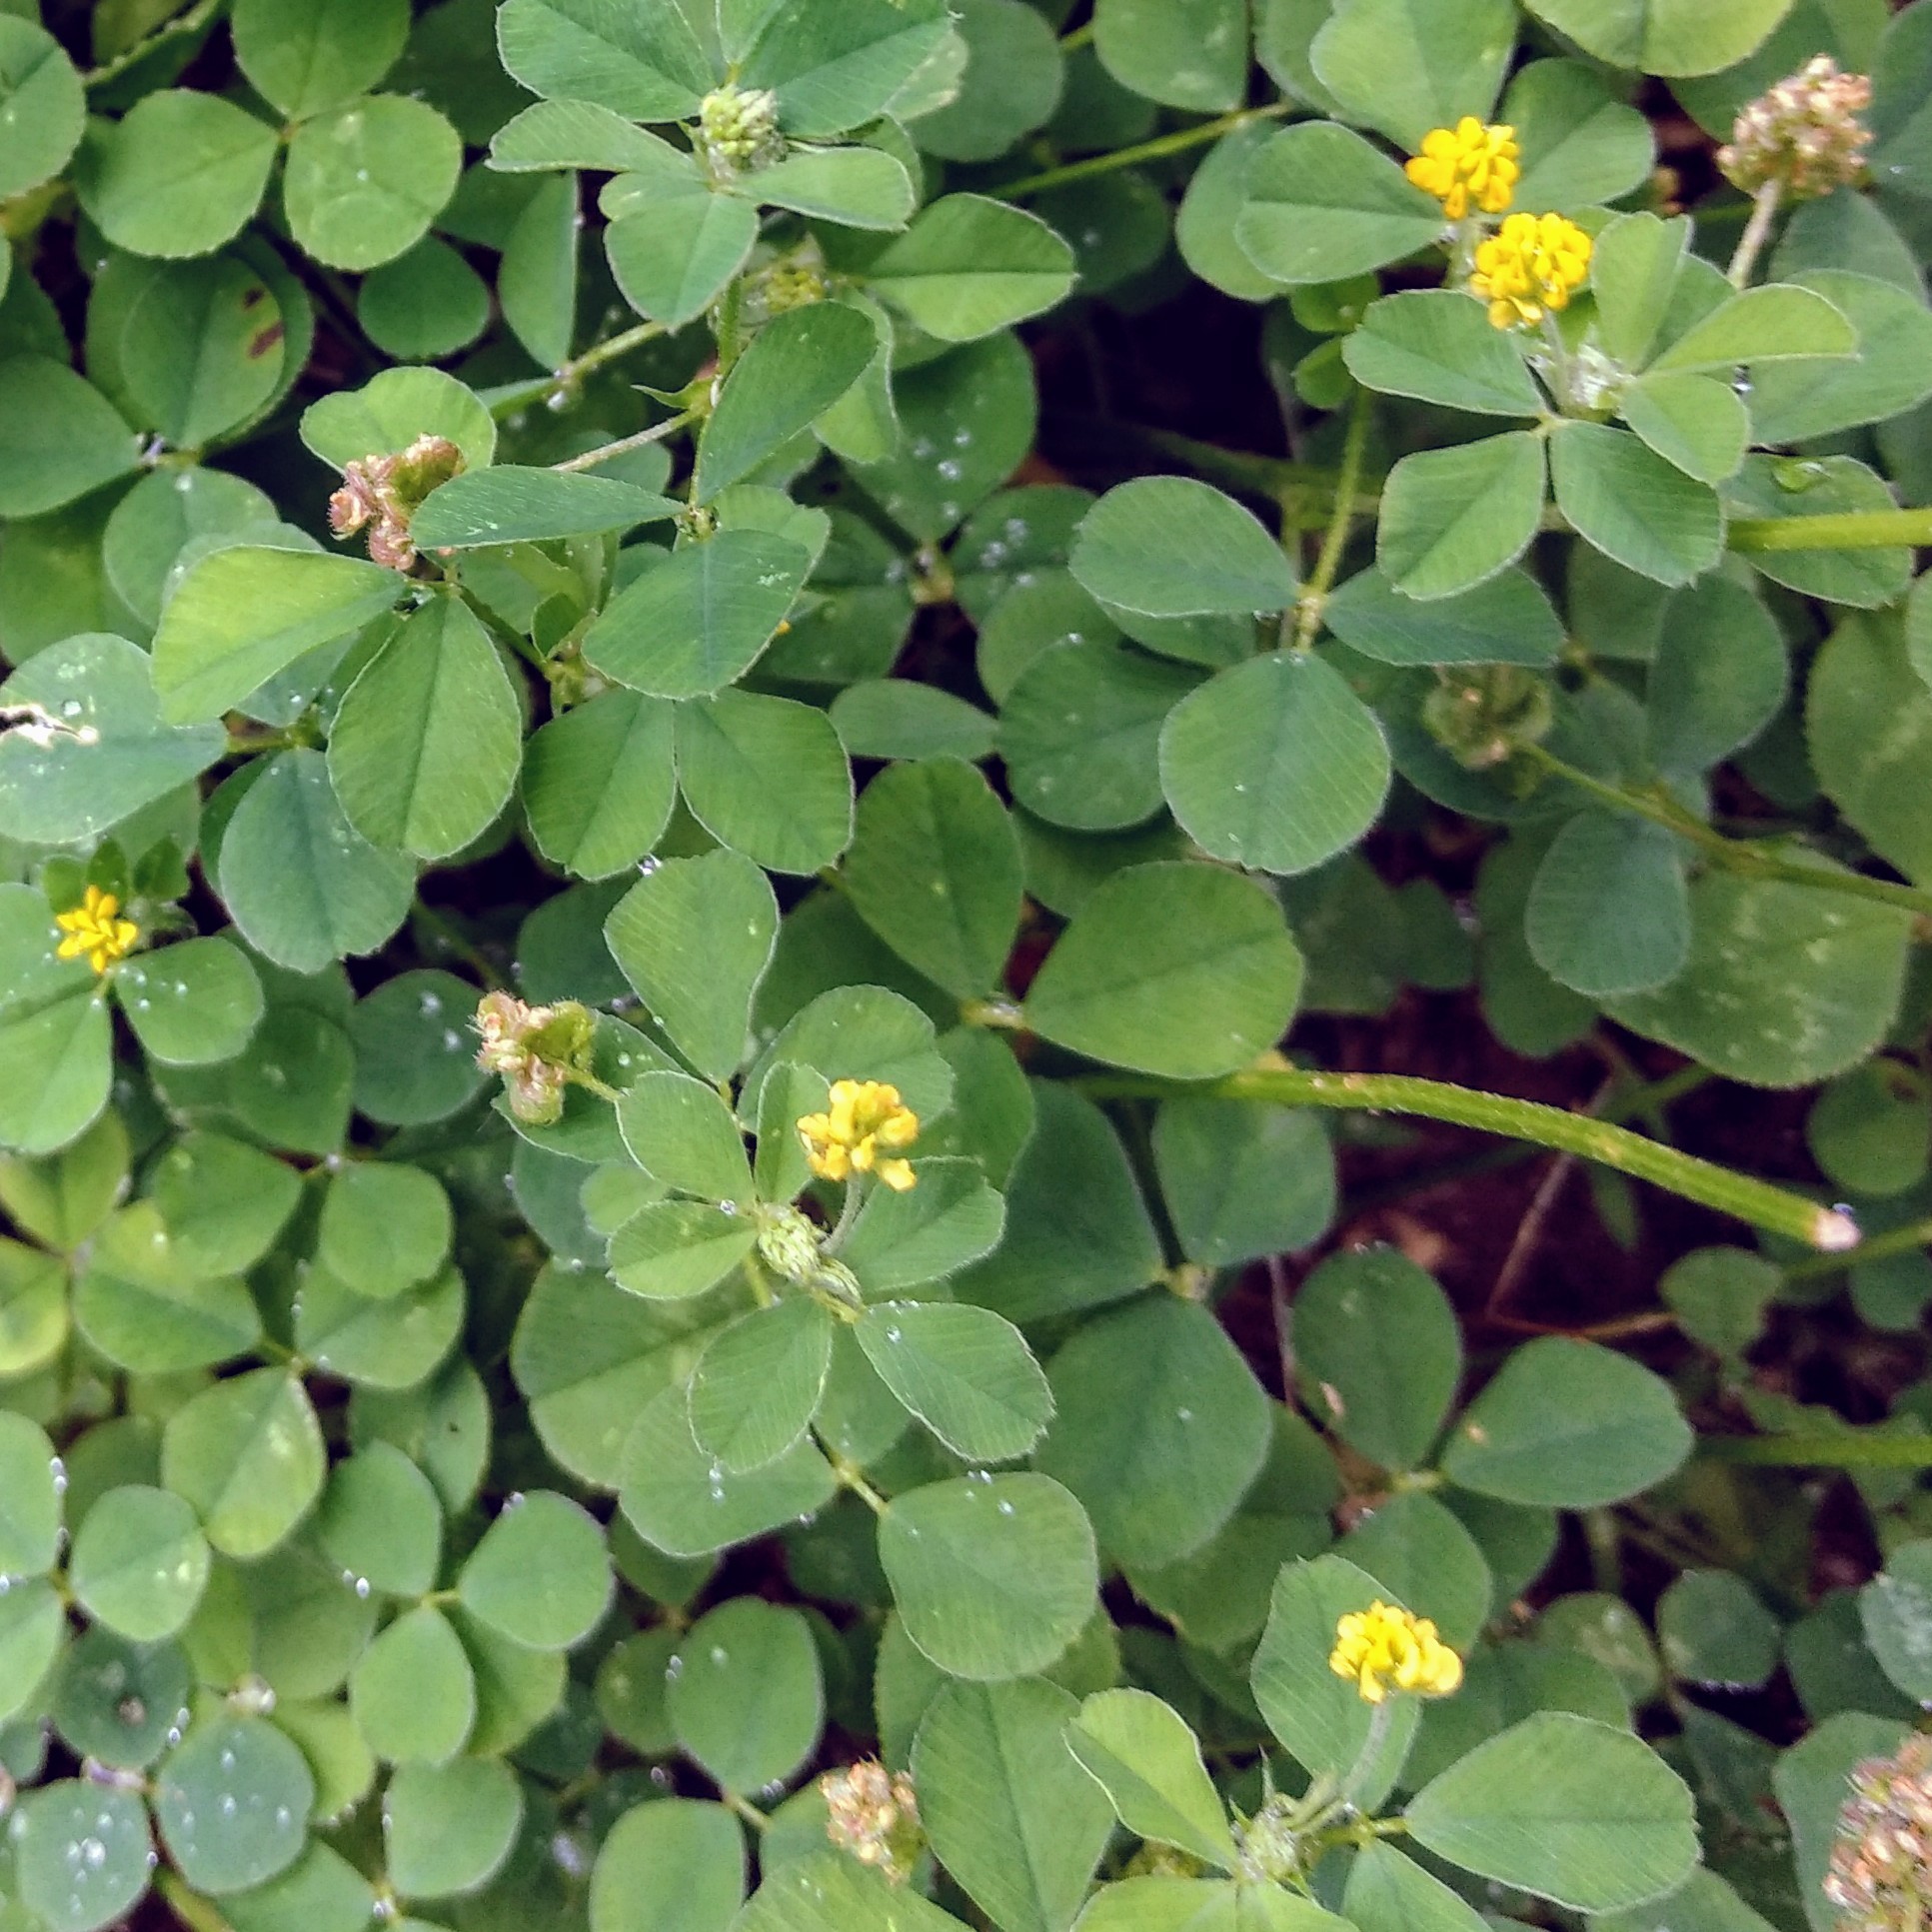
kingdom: Plantae
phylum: Tracheophyta
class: Magnoliopsida
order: Fabales
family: Fabaceae
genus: Medicago
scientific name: Medicago lupulina
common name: Black medick
